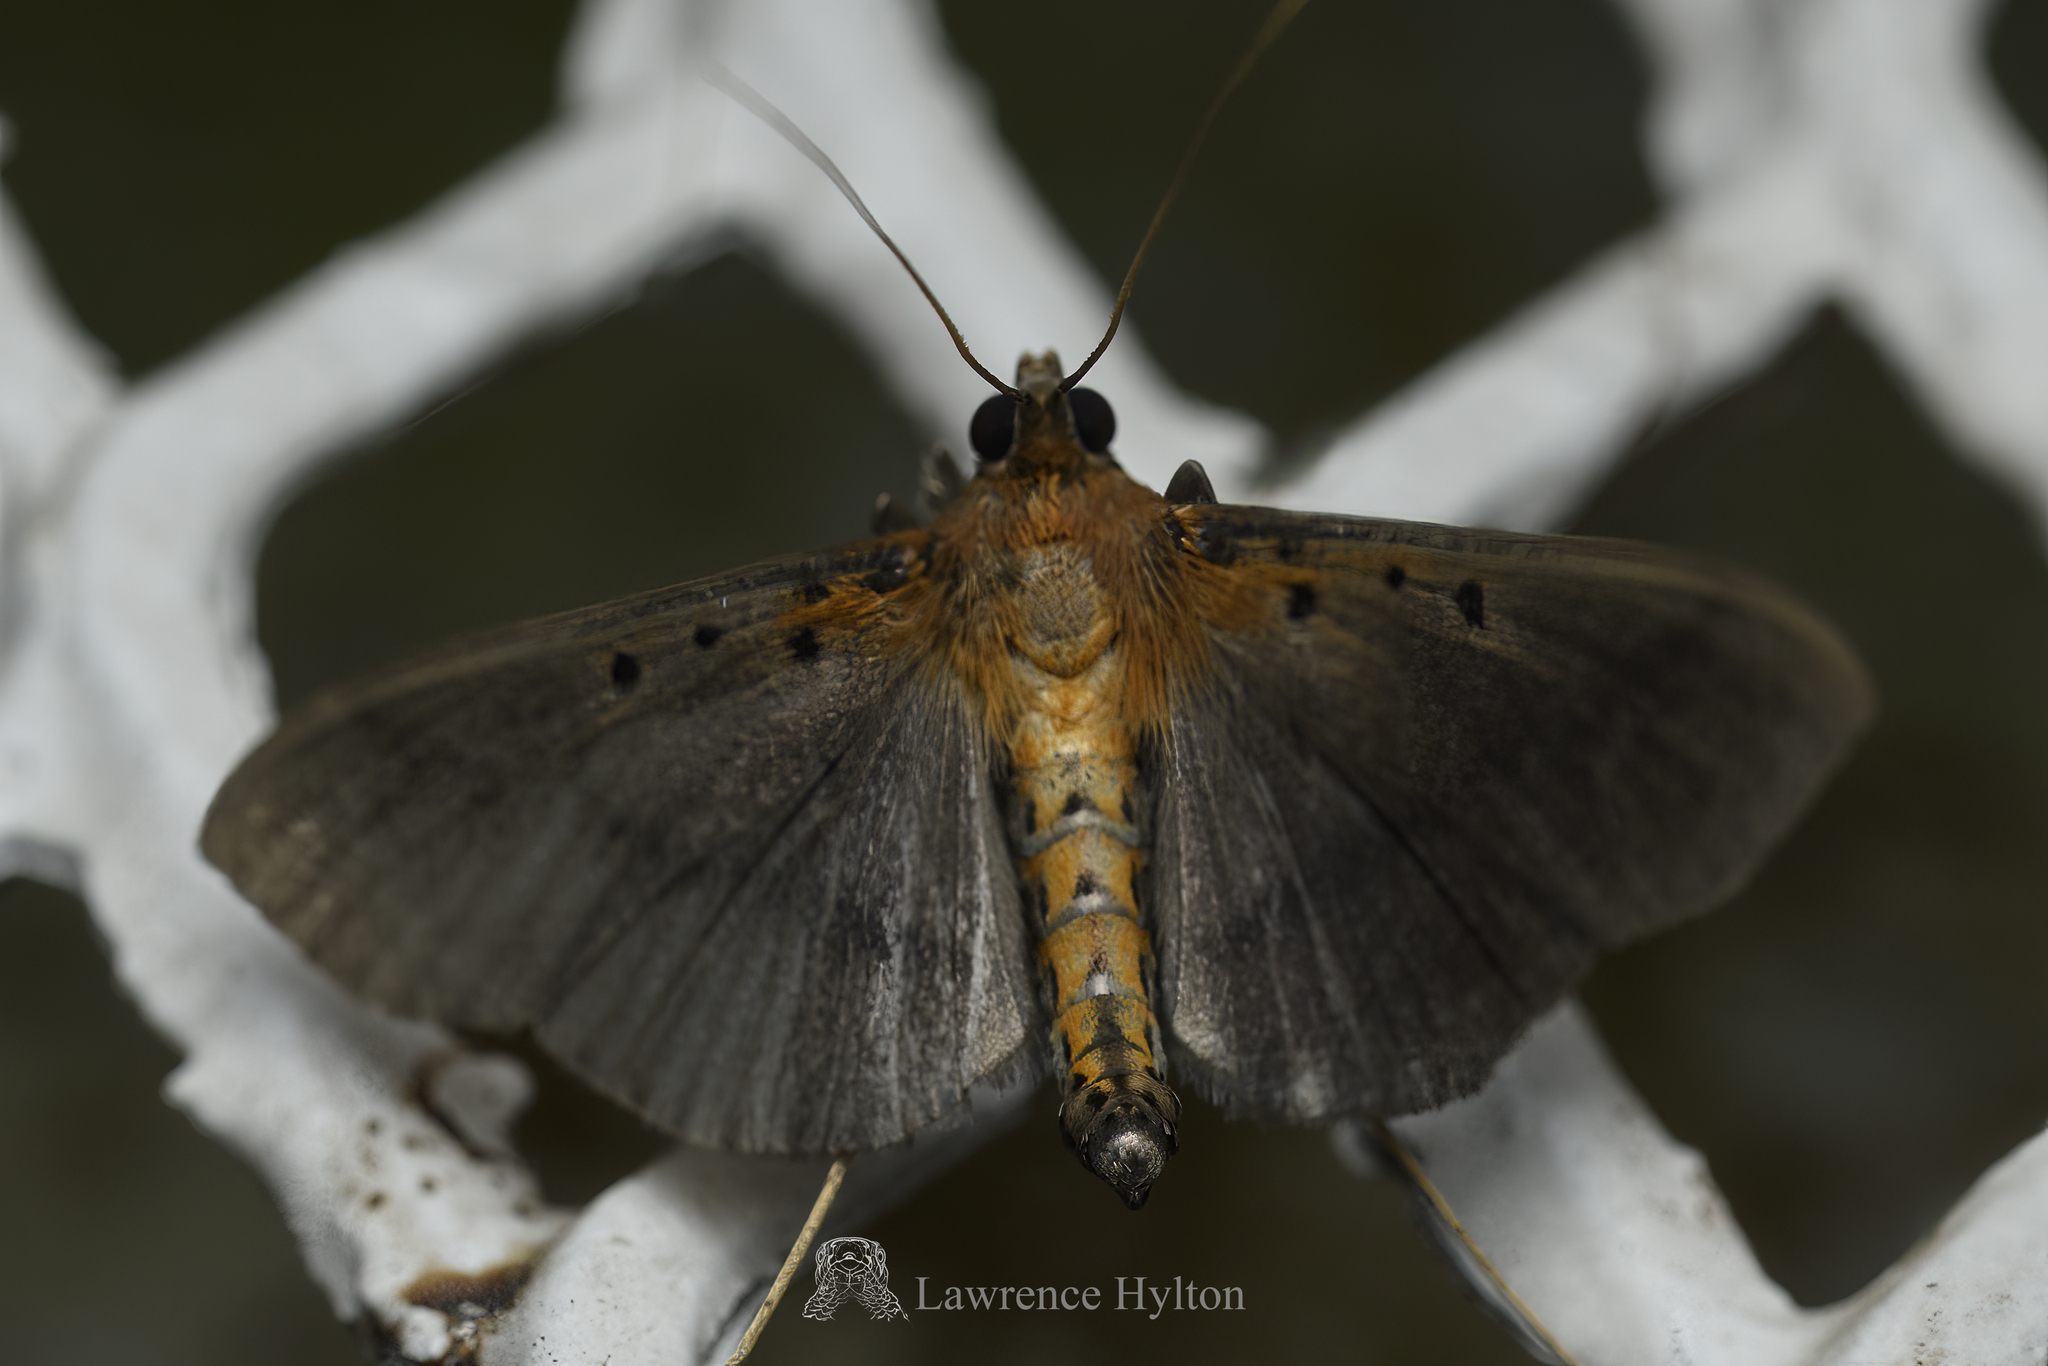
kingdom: Animalia
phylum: Arthropoda
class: Insecta
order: Lepidoptera
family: Crambidae
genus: Filodes
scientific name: Filodes fulvidorsalis
